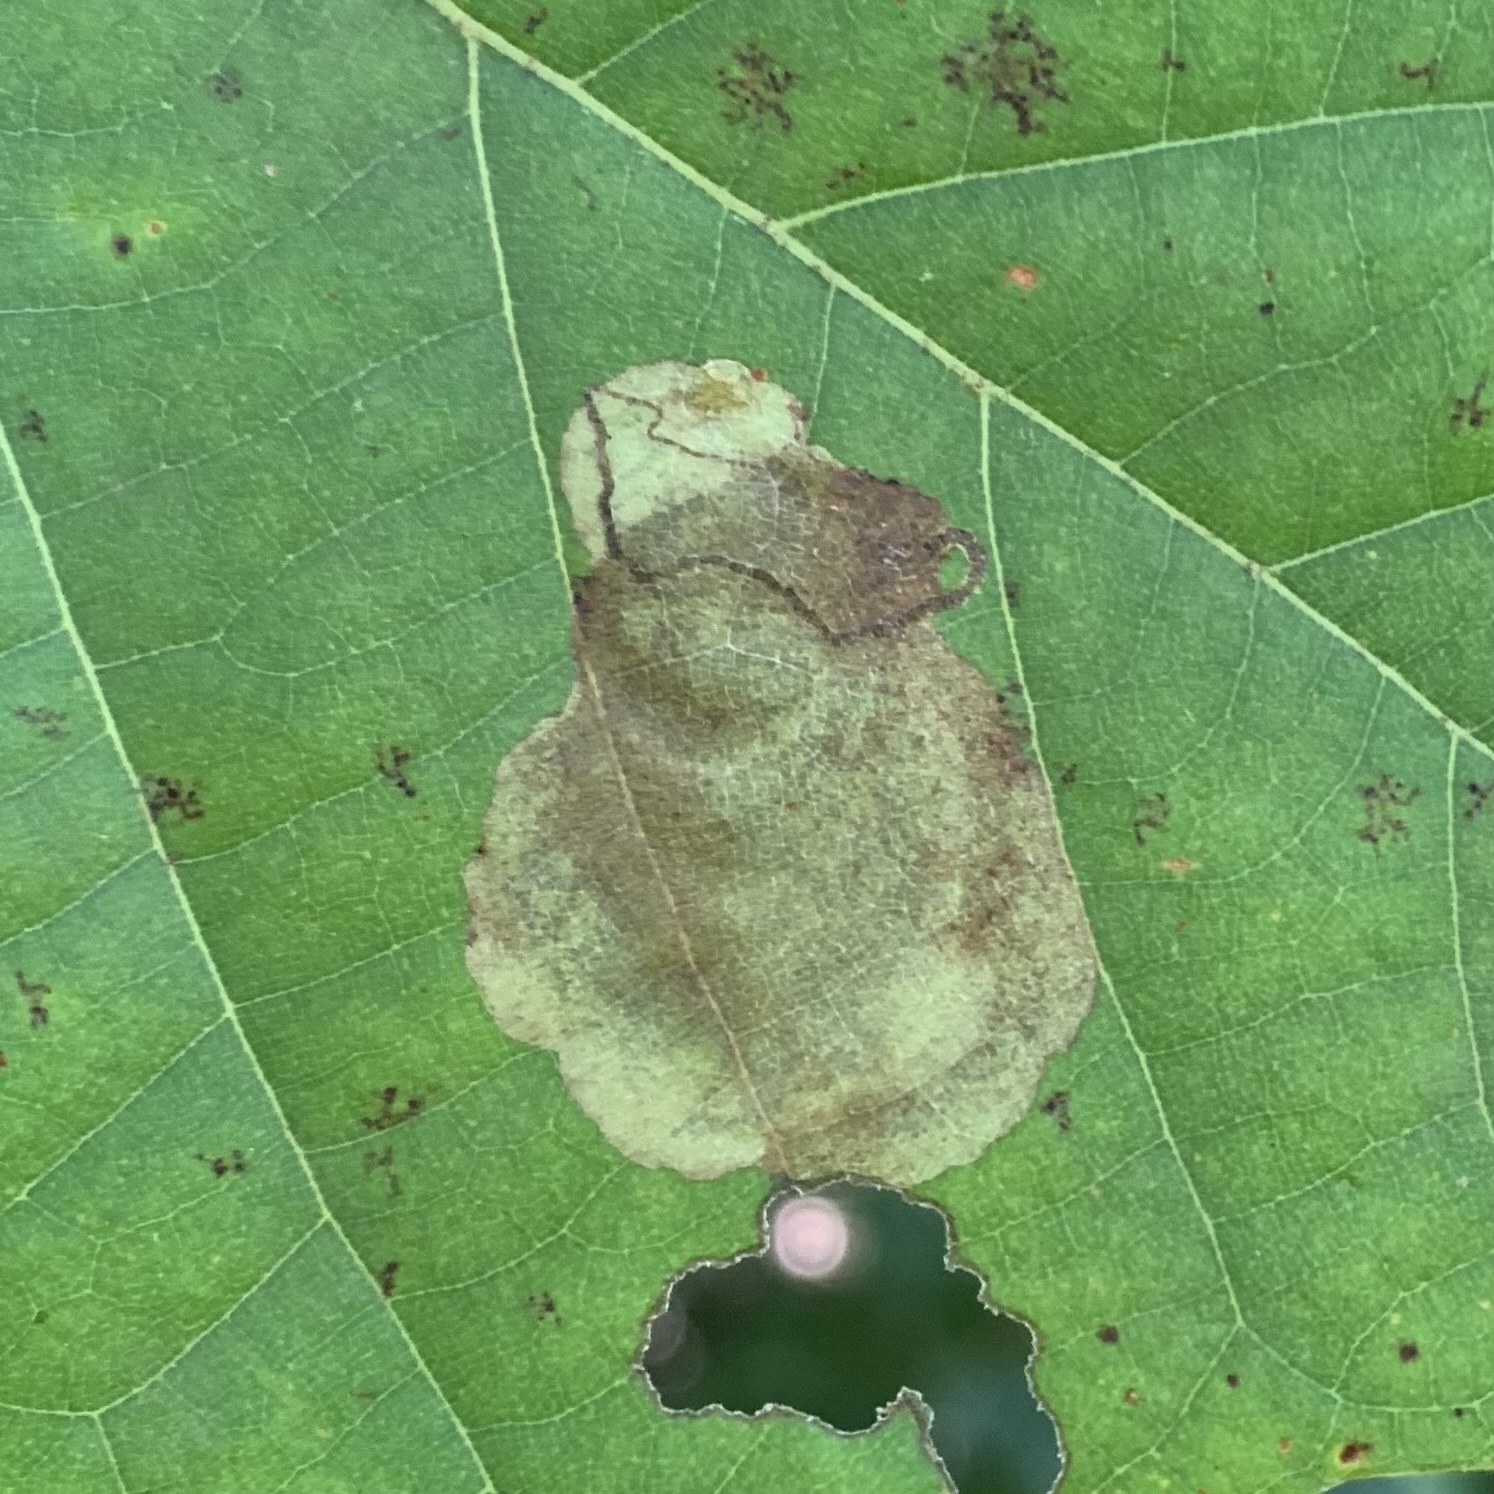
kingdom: Animalia
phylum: Arthropoda
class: Insecta
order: Lepidoptera
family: Nepticulidae
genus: Ectoedemia
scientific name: Ectoedemia platanella
